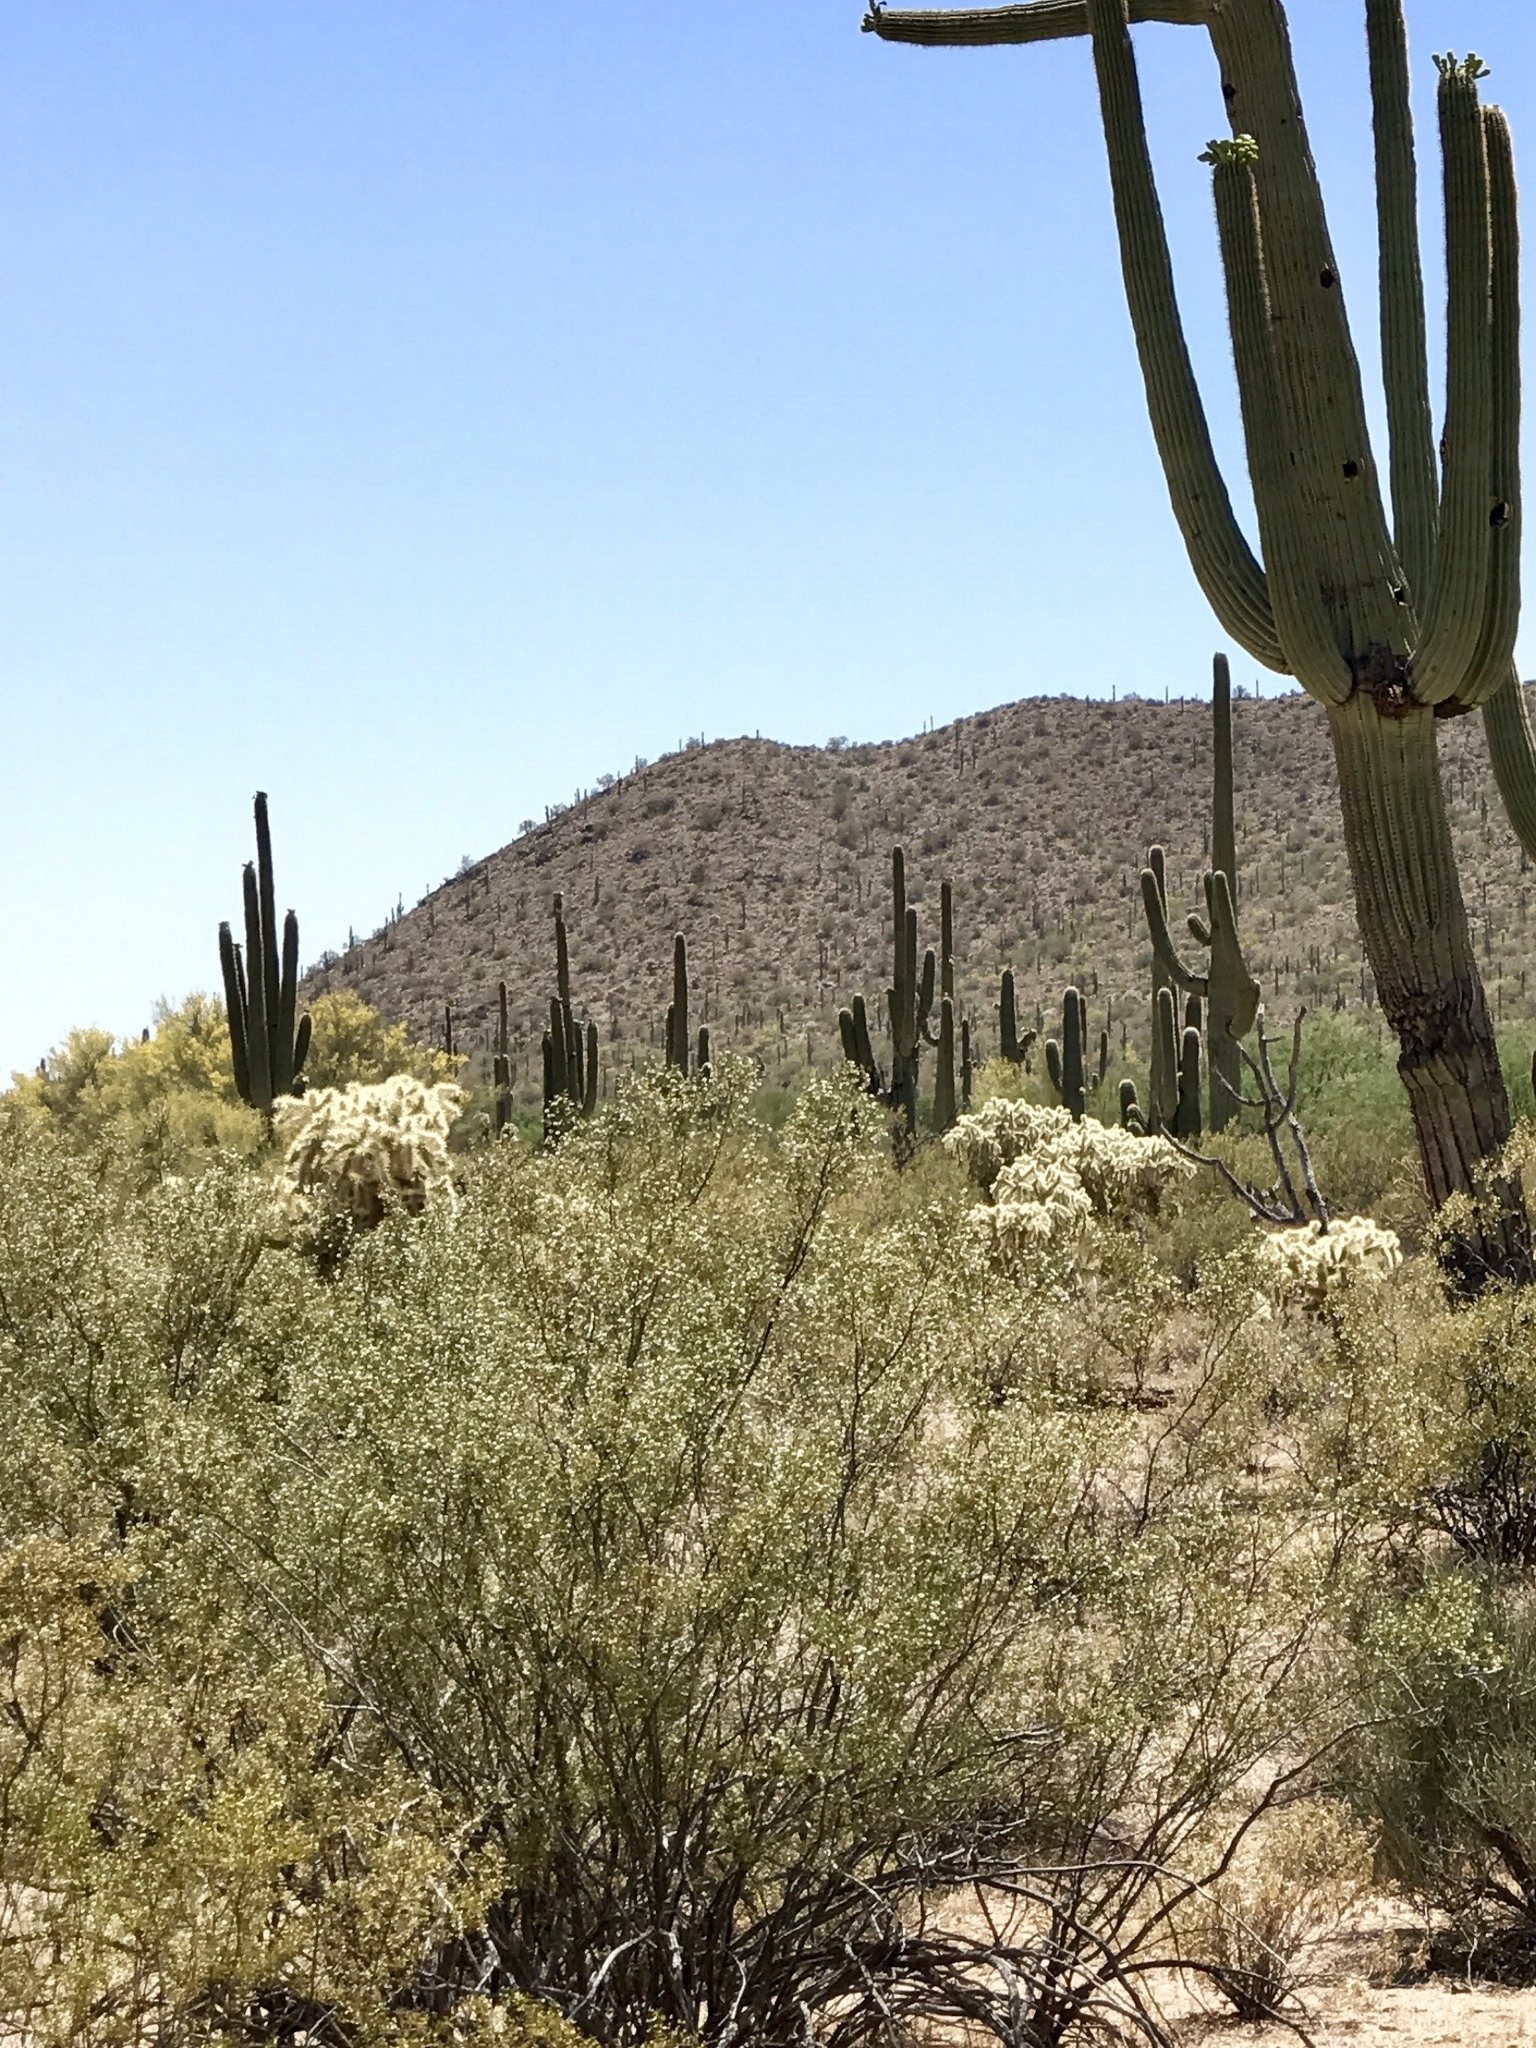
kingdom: Plantae
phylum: Tracheophyta
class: Magnoliopsida
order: Zygophyllales
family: Zygophyllaceae
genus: Larrea
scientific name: Larrea tridentata
